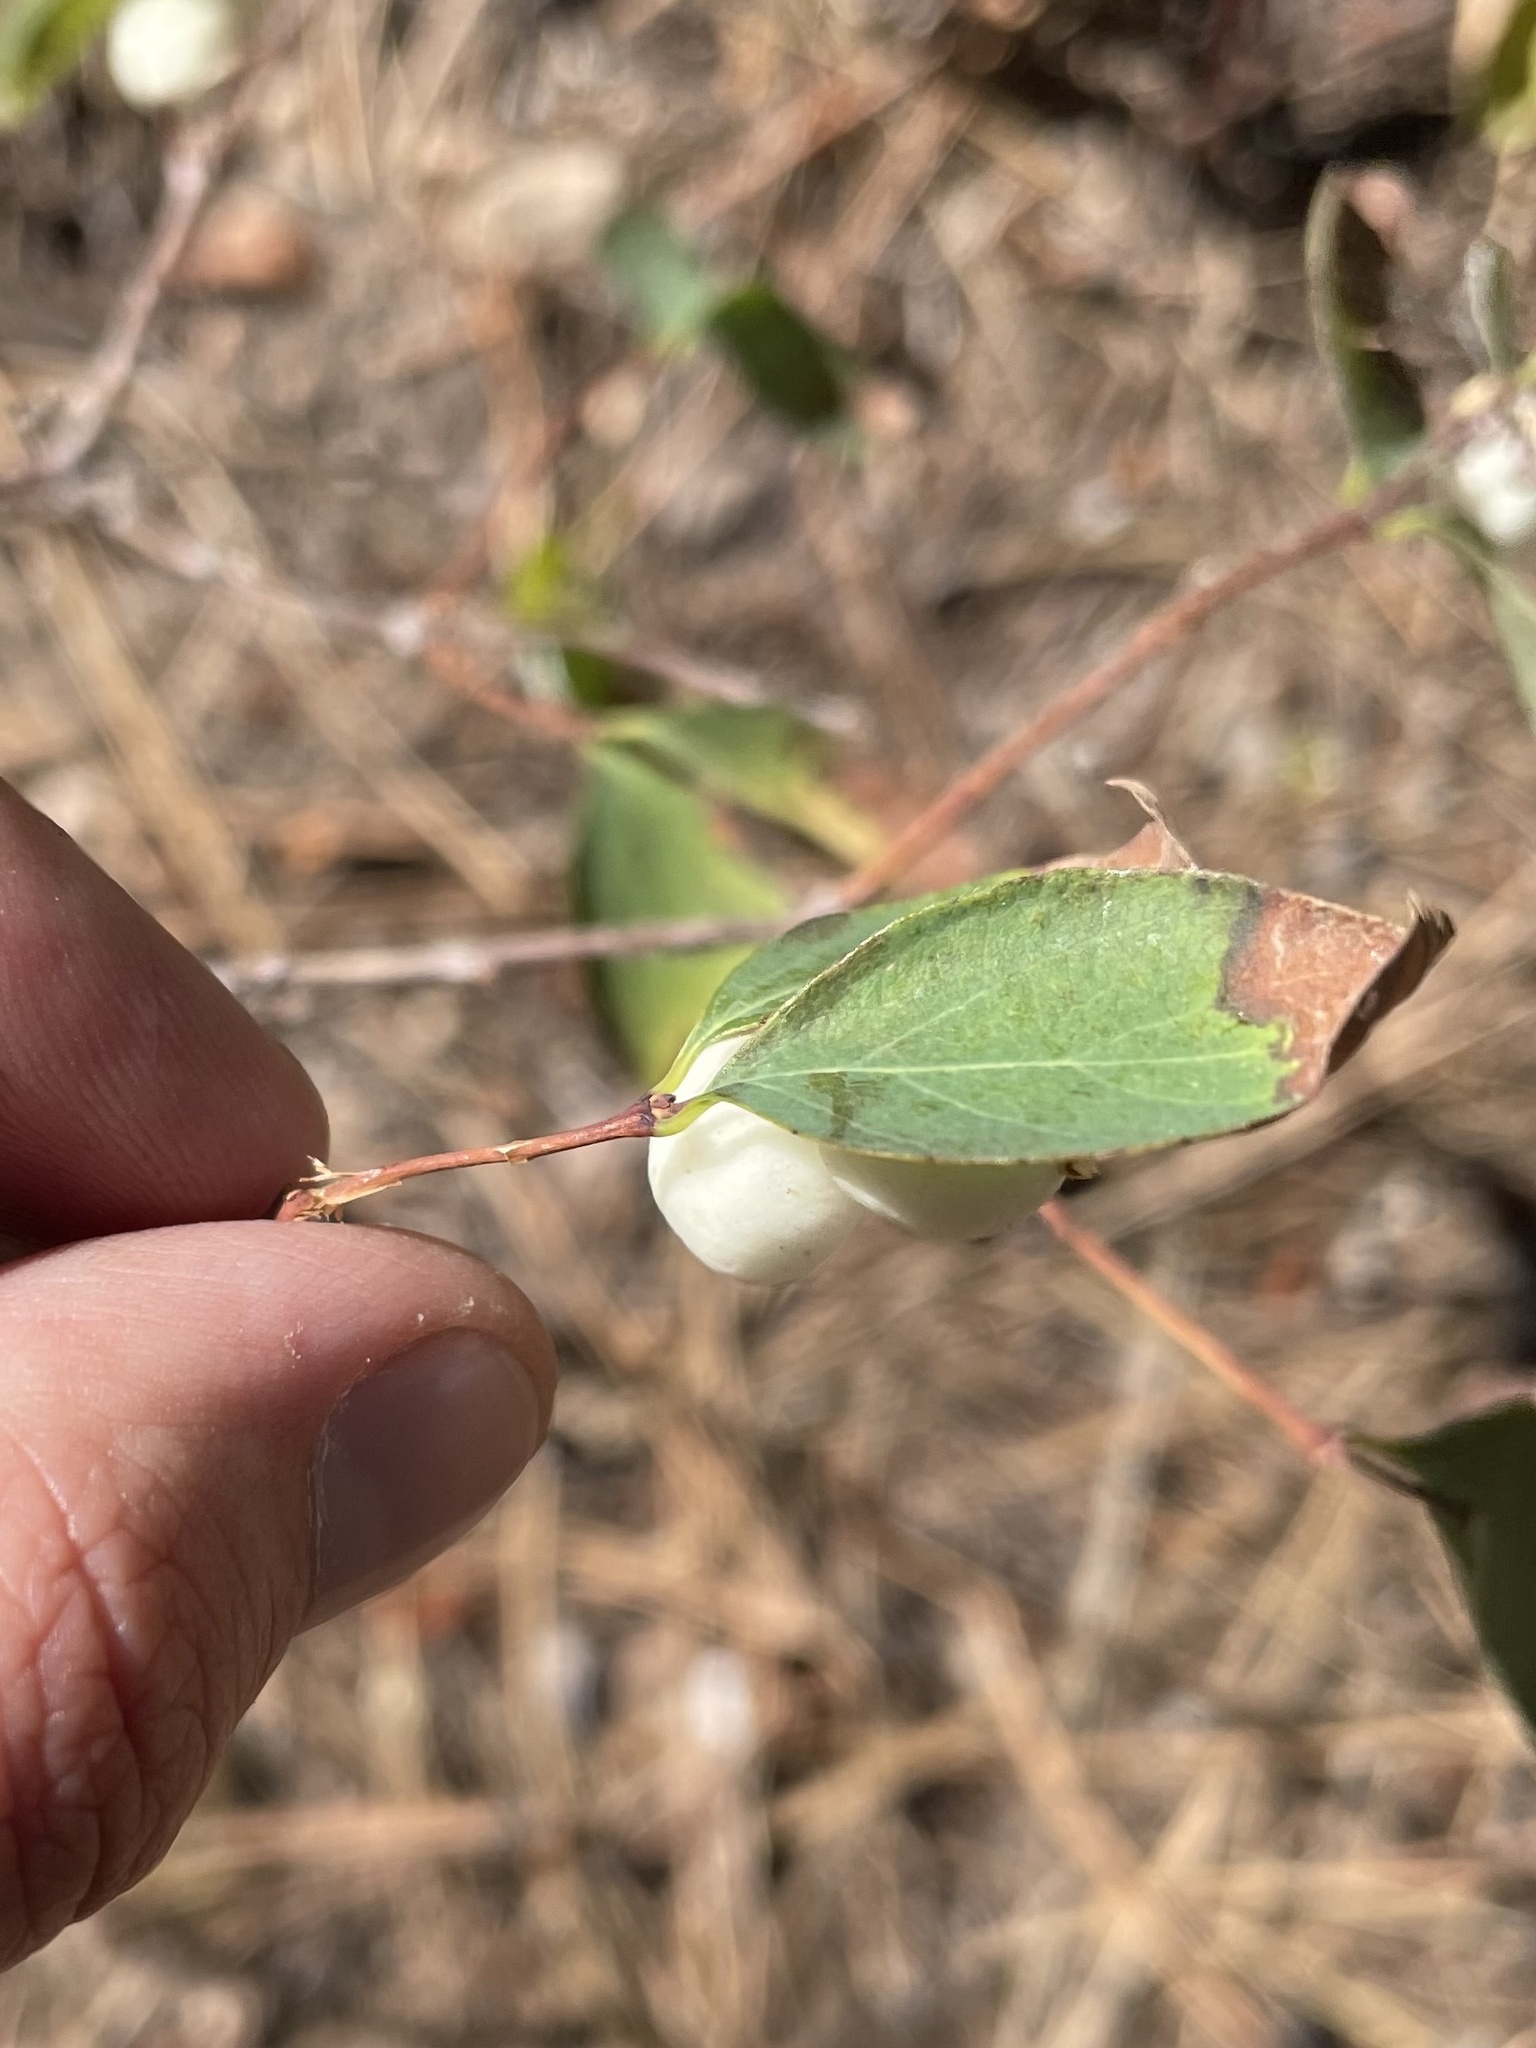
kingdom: Plantae
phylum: Tracheophyta
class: Magnoliopsida
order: Dipsacales
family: Caprifoliaceae
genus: Symphoricarpos
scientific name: Symphoricarpos albus
